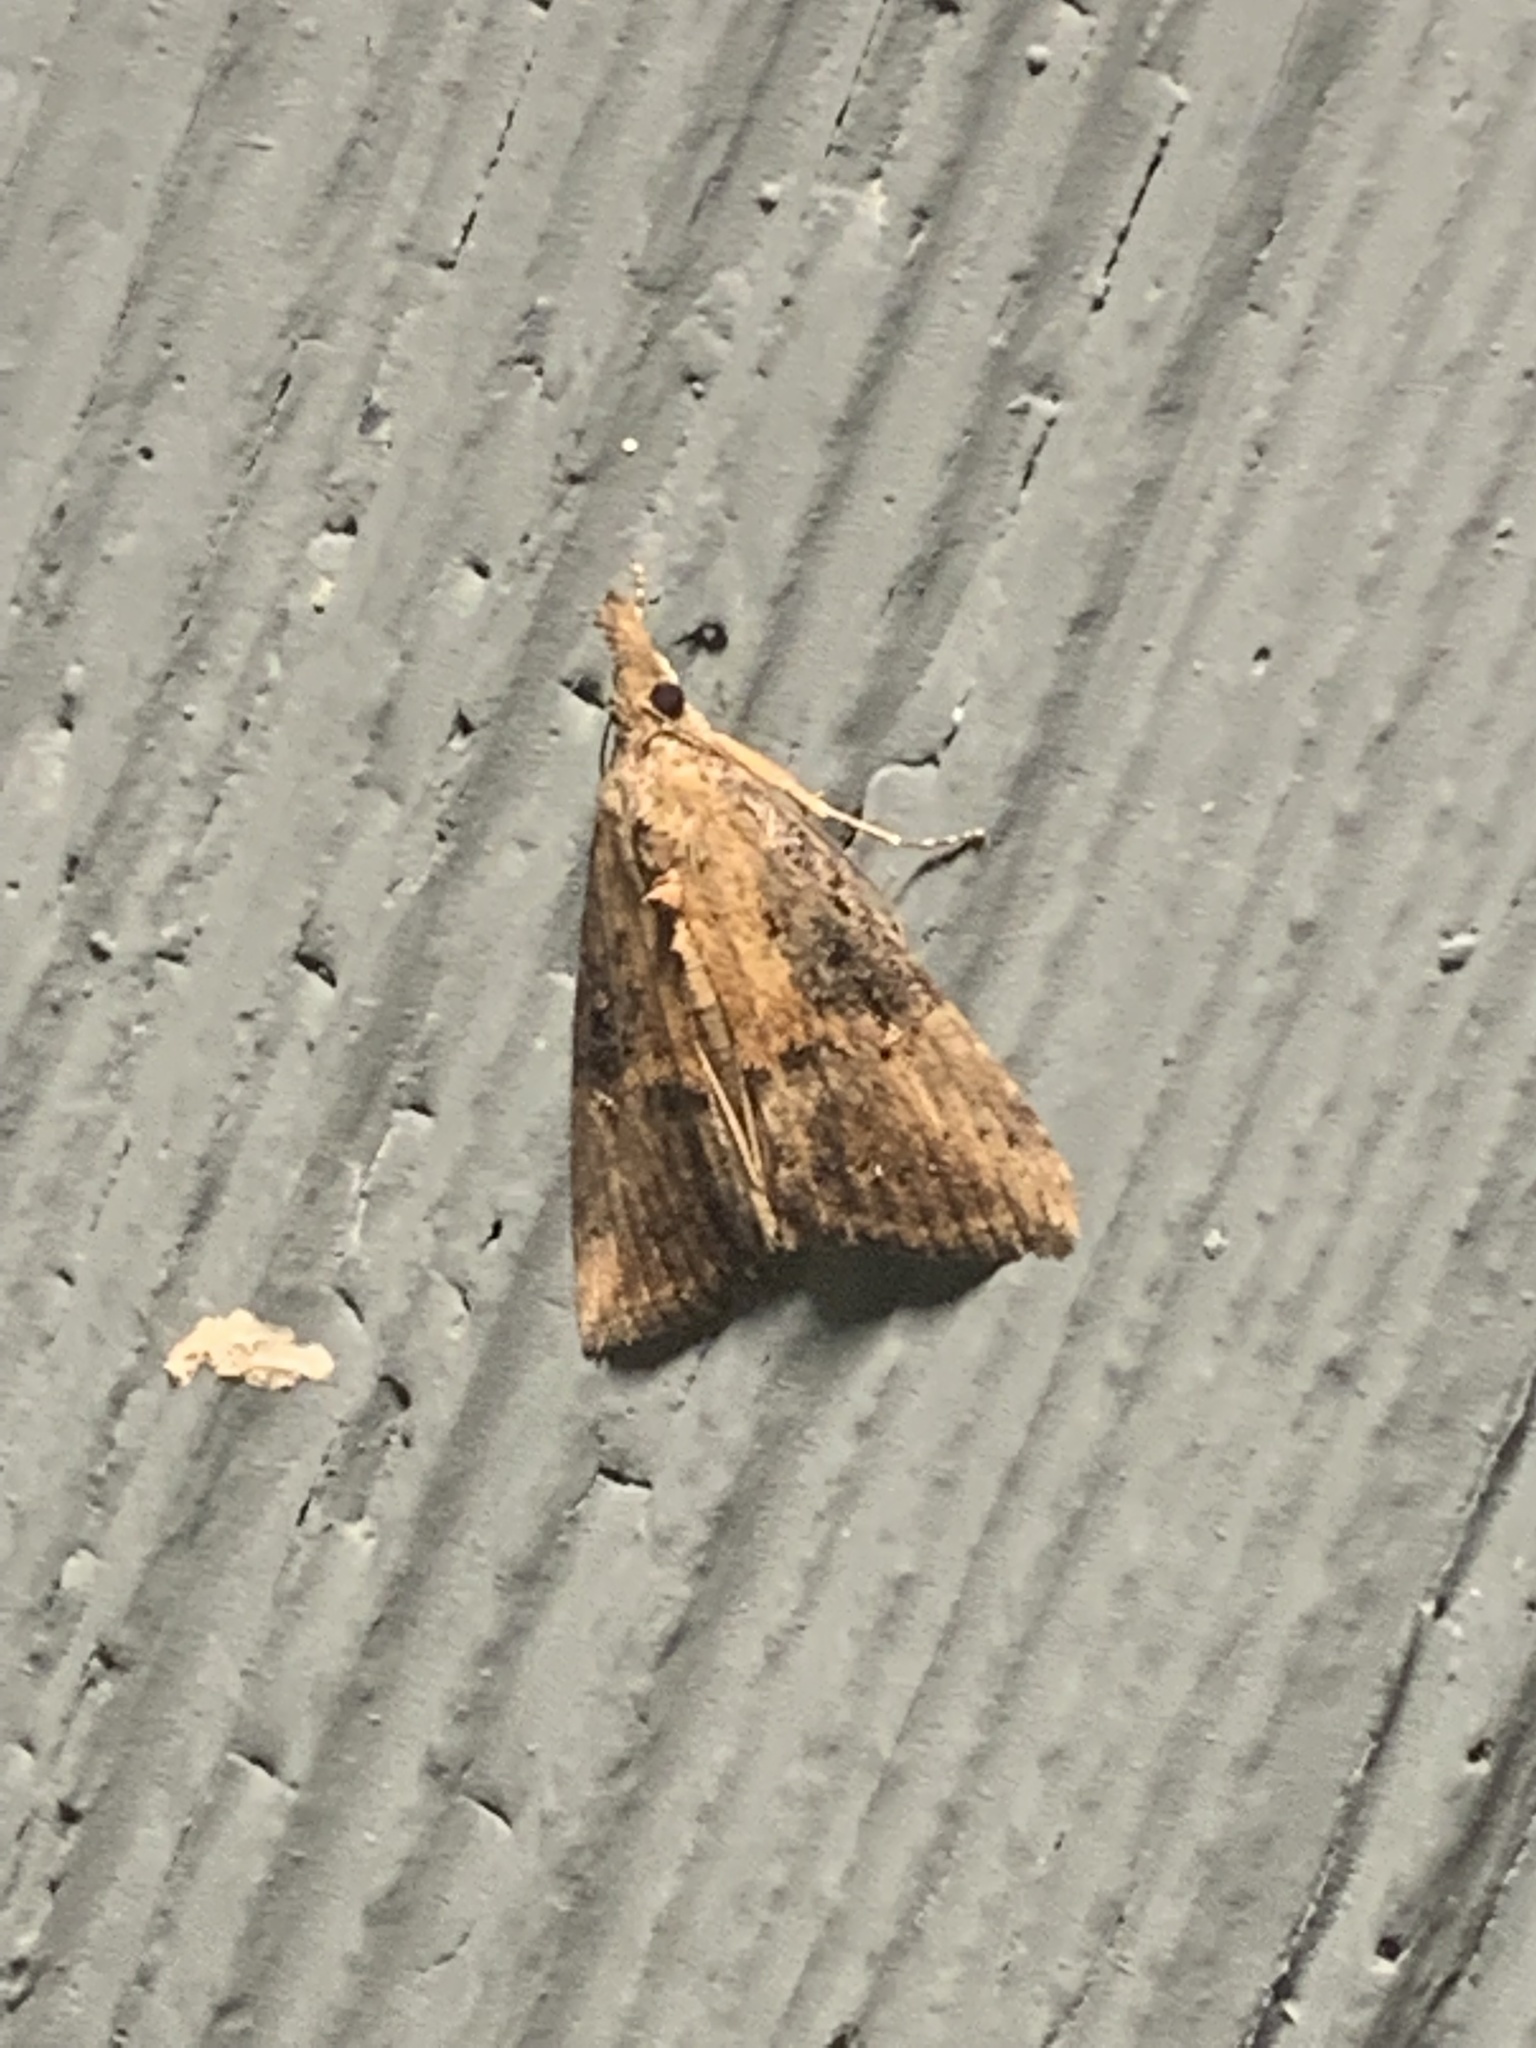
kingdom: Animalia
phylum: Arthropoda
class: Insecta
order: Lepidoptera
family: Erebidae
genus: Hypena
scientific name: Hypena scabra
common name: Green cloverworm
